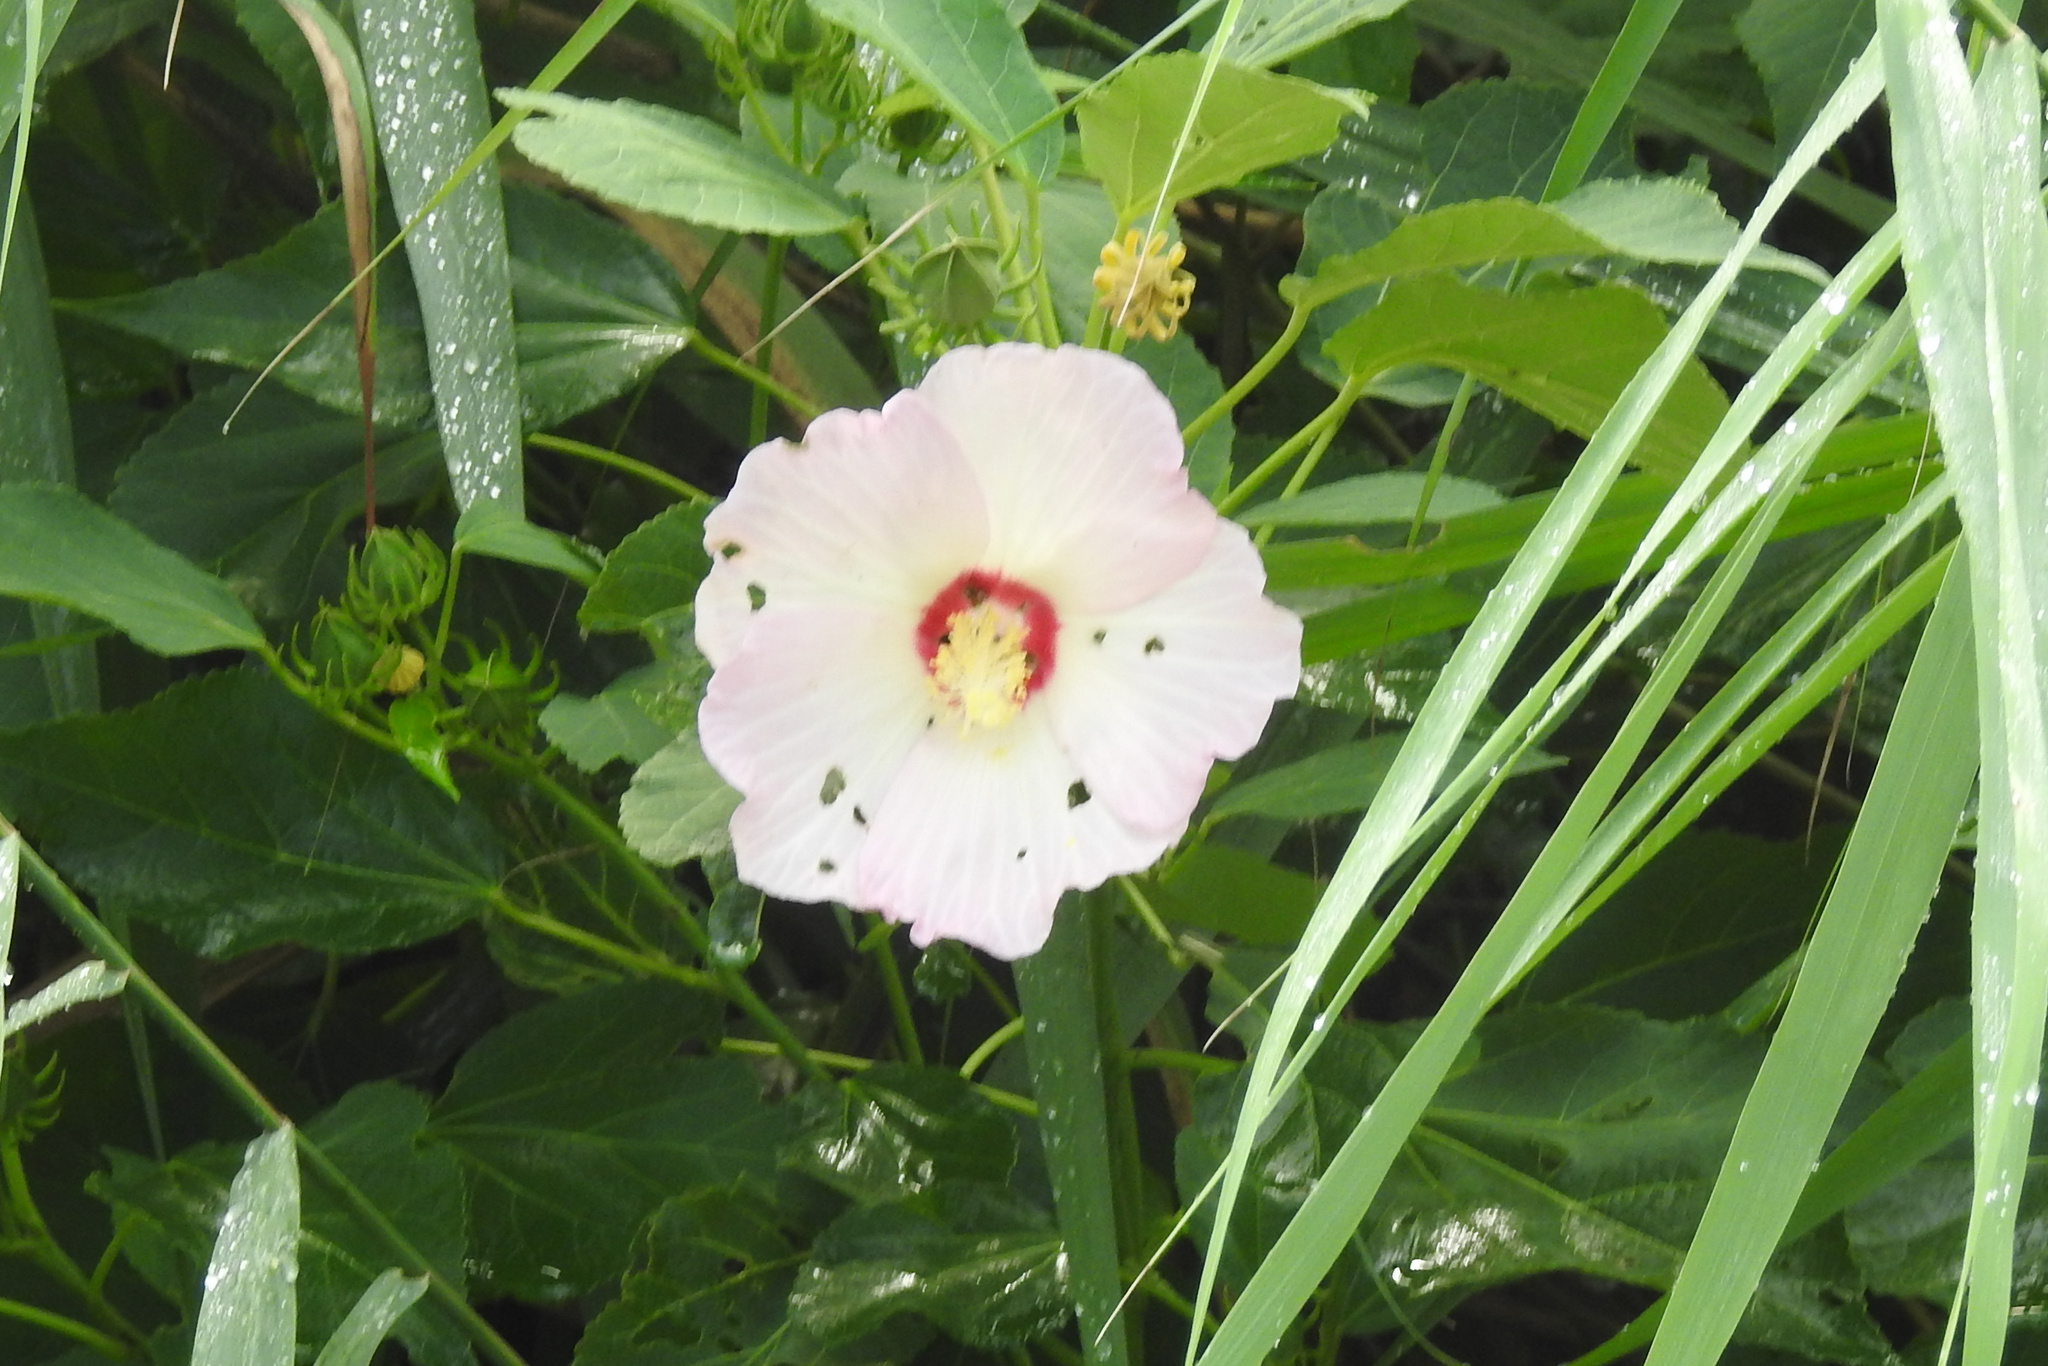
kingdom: Plantae
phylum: Tracheophyta
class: Magnoliopsida
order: Malvales
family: Malvaceae
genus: Hibiscus
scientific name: Hibiscus moscheutos
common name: Common rose-mallow
